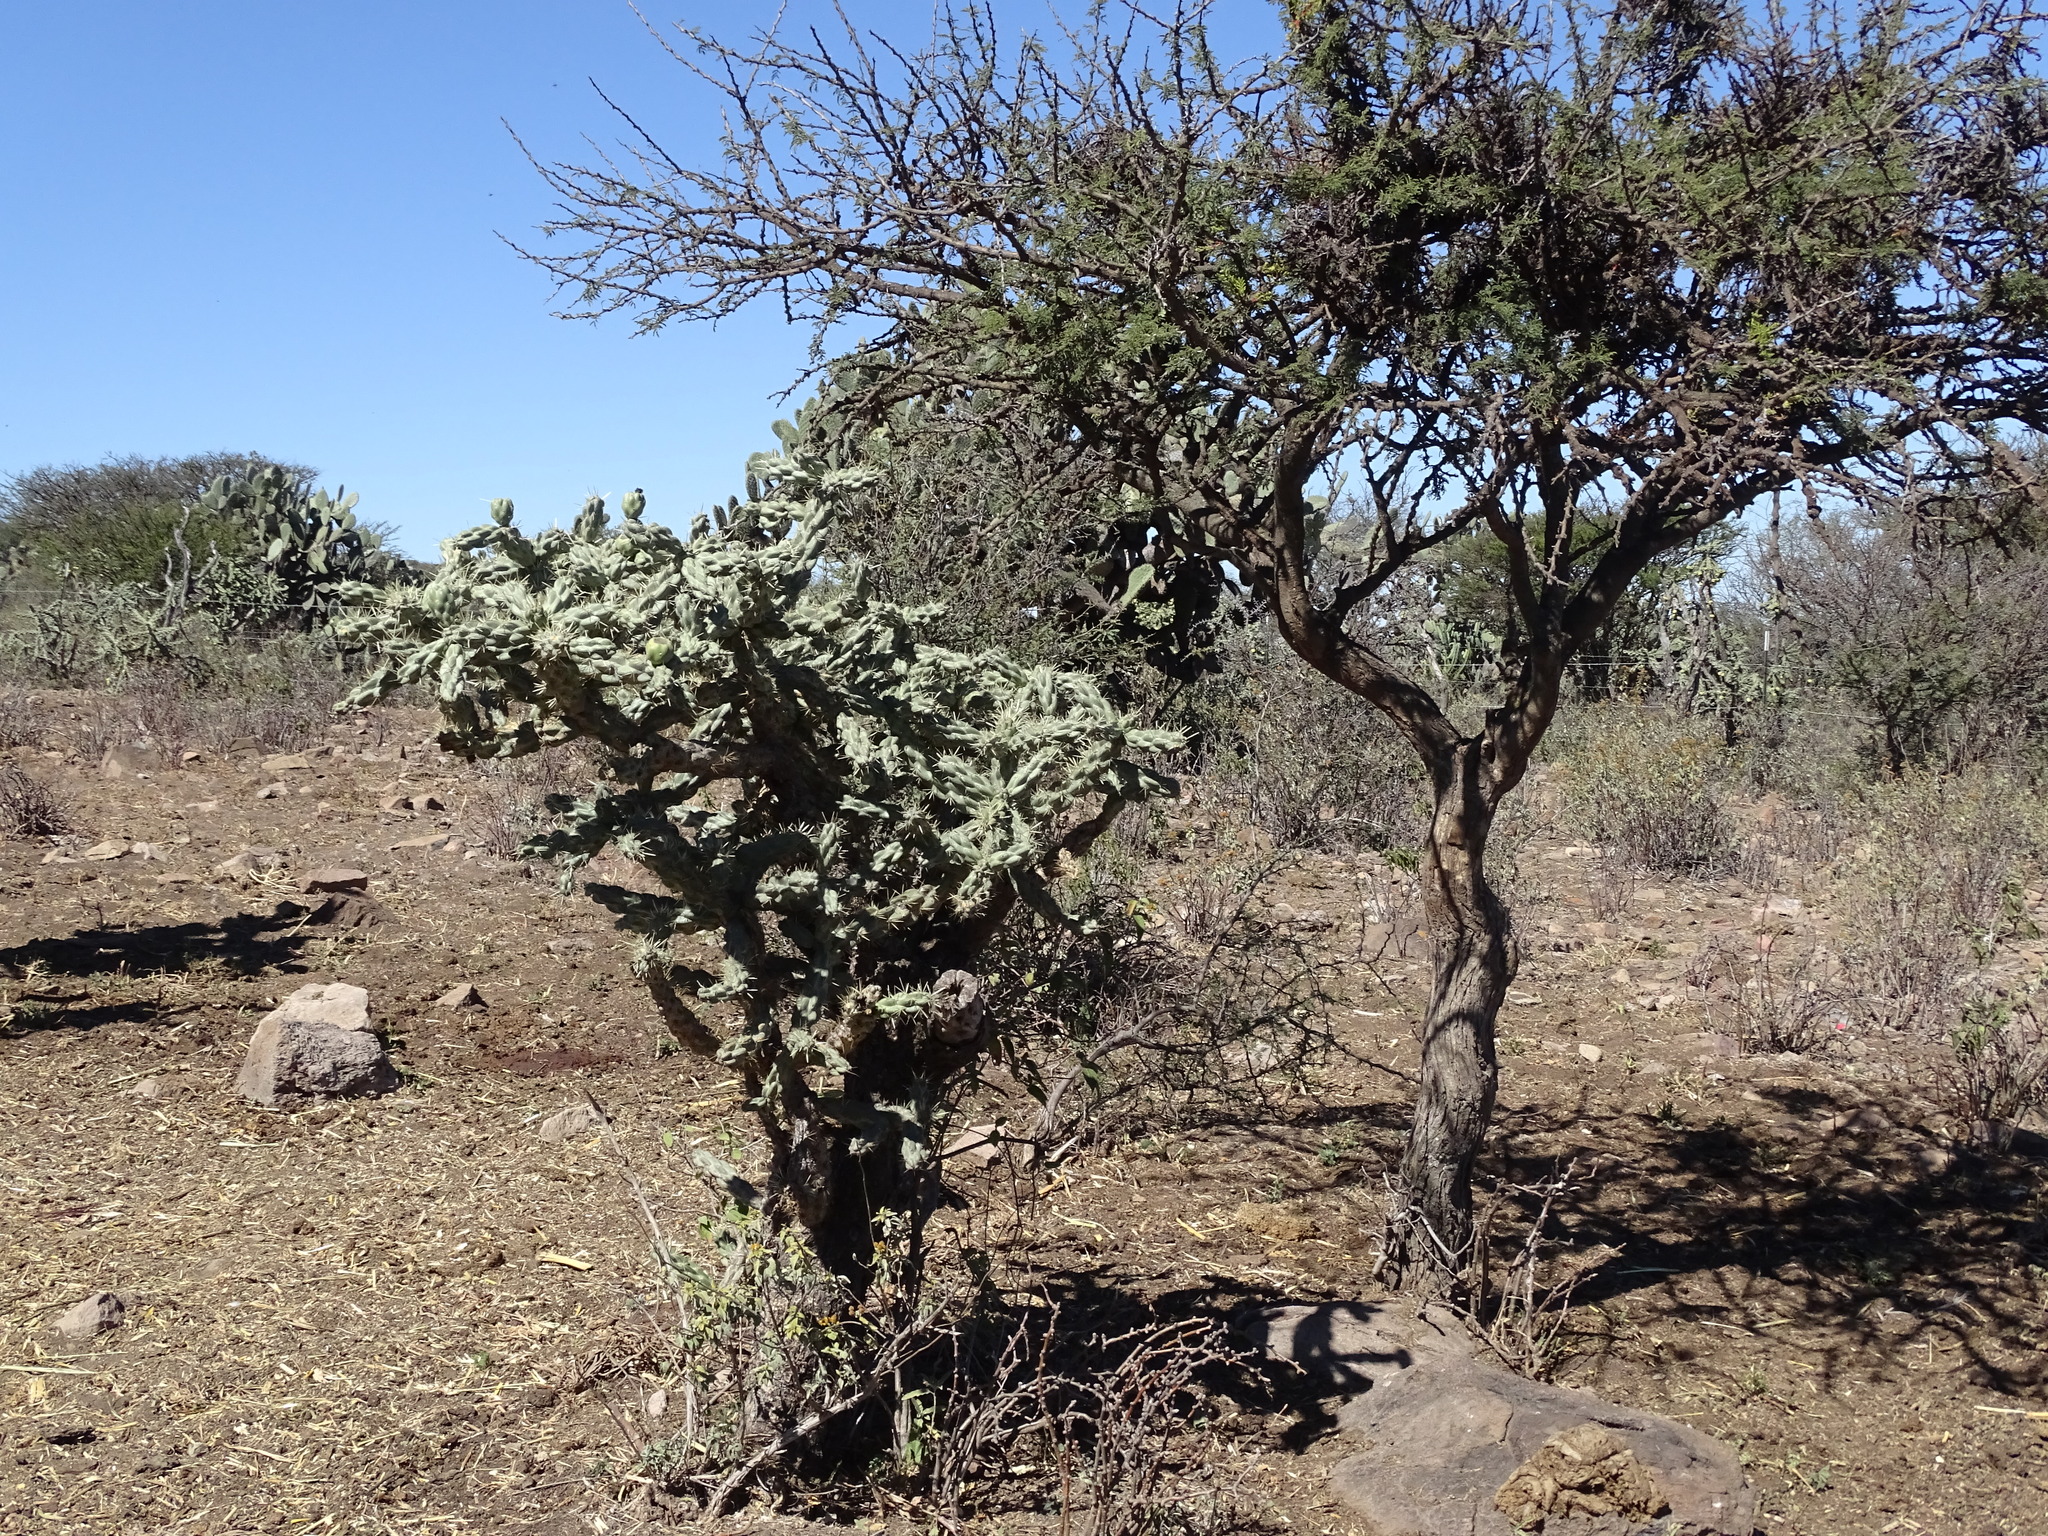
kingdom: Plantae
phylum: Tracheophyta
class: Magnoliopsida
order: Caryophyllales
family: Cactaceae
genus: Cylindropuntia
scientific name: Cylindropuntia imbricata
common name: Candelabrum cactus
